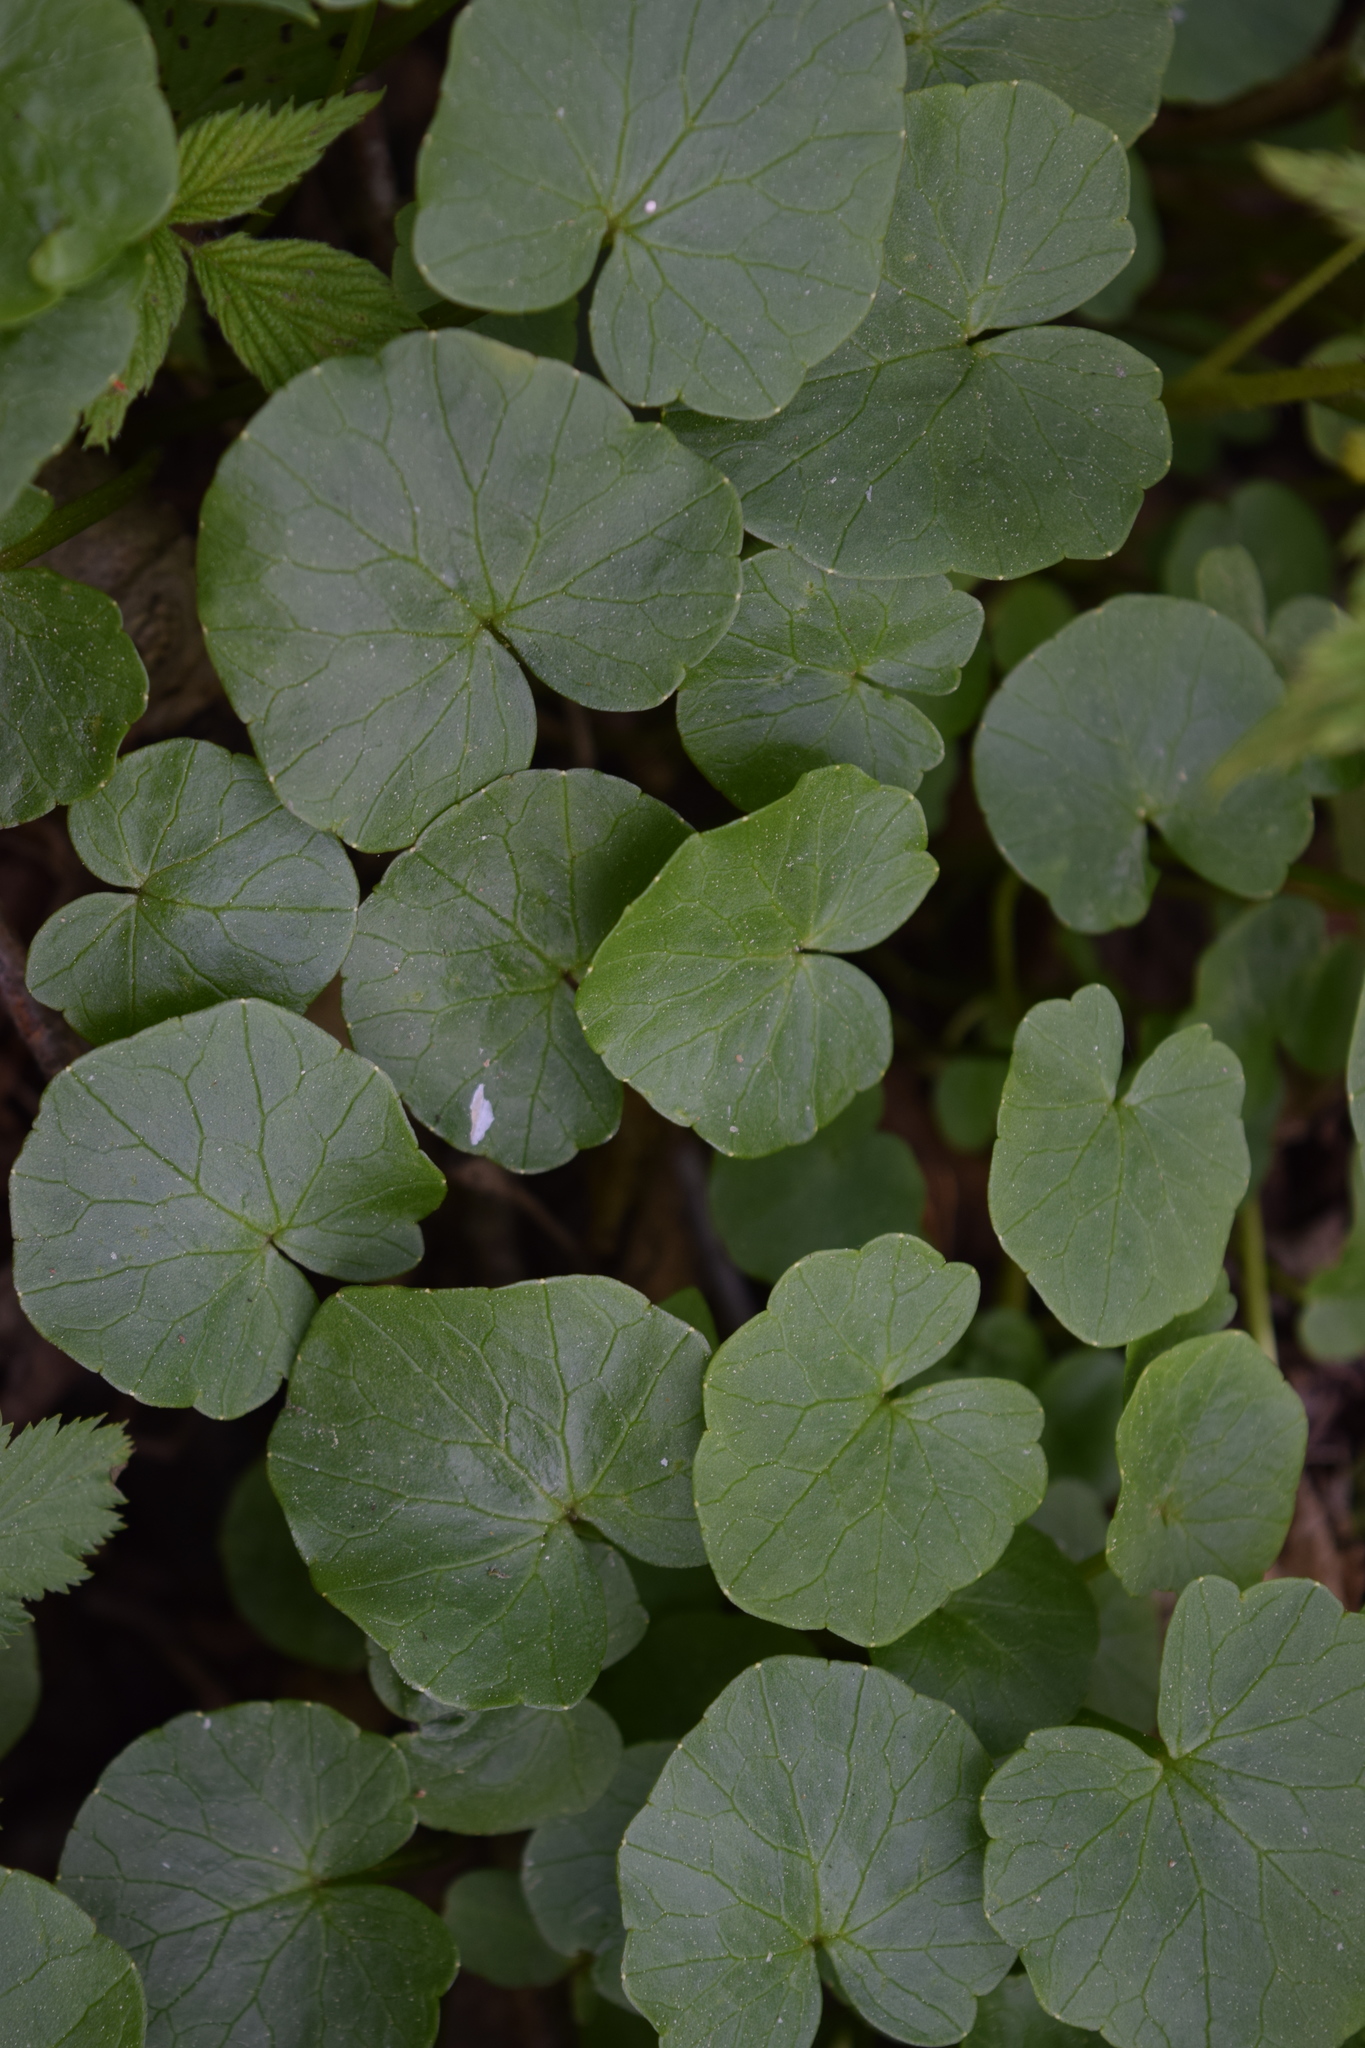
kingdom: Plantae
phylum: Tracheophyta
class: Magnoliopsida
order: Ranunculales
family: Ranunculaceae
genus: Ficaria
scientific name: Ficaria verna
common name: Lesser celandine
